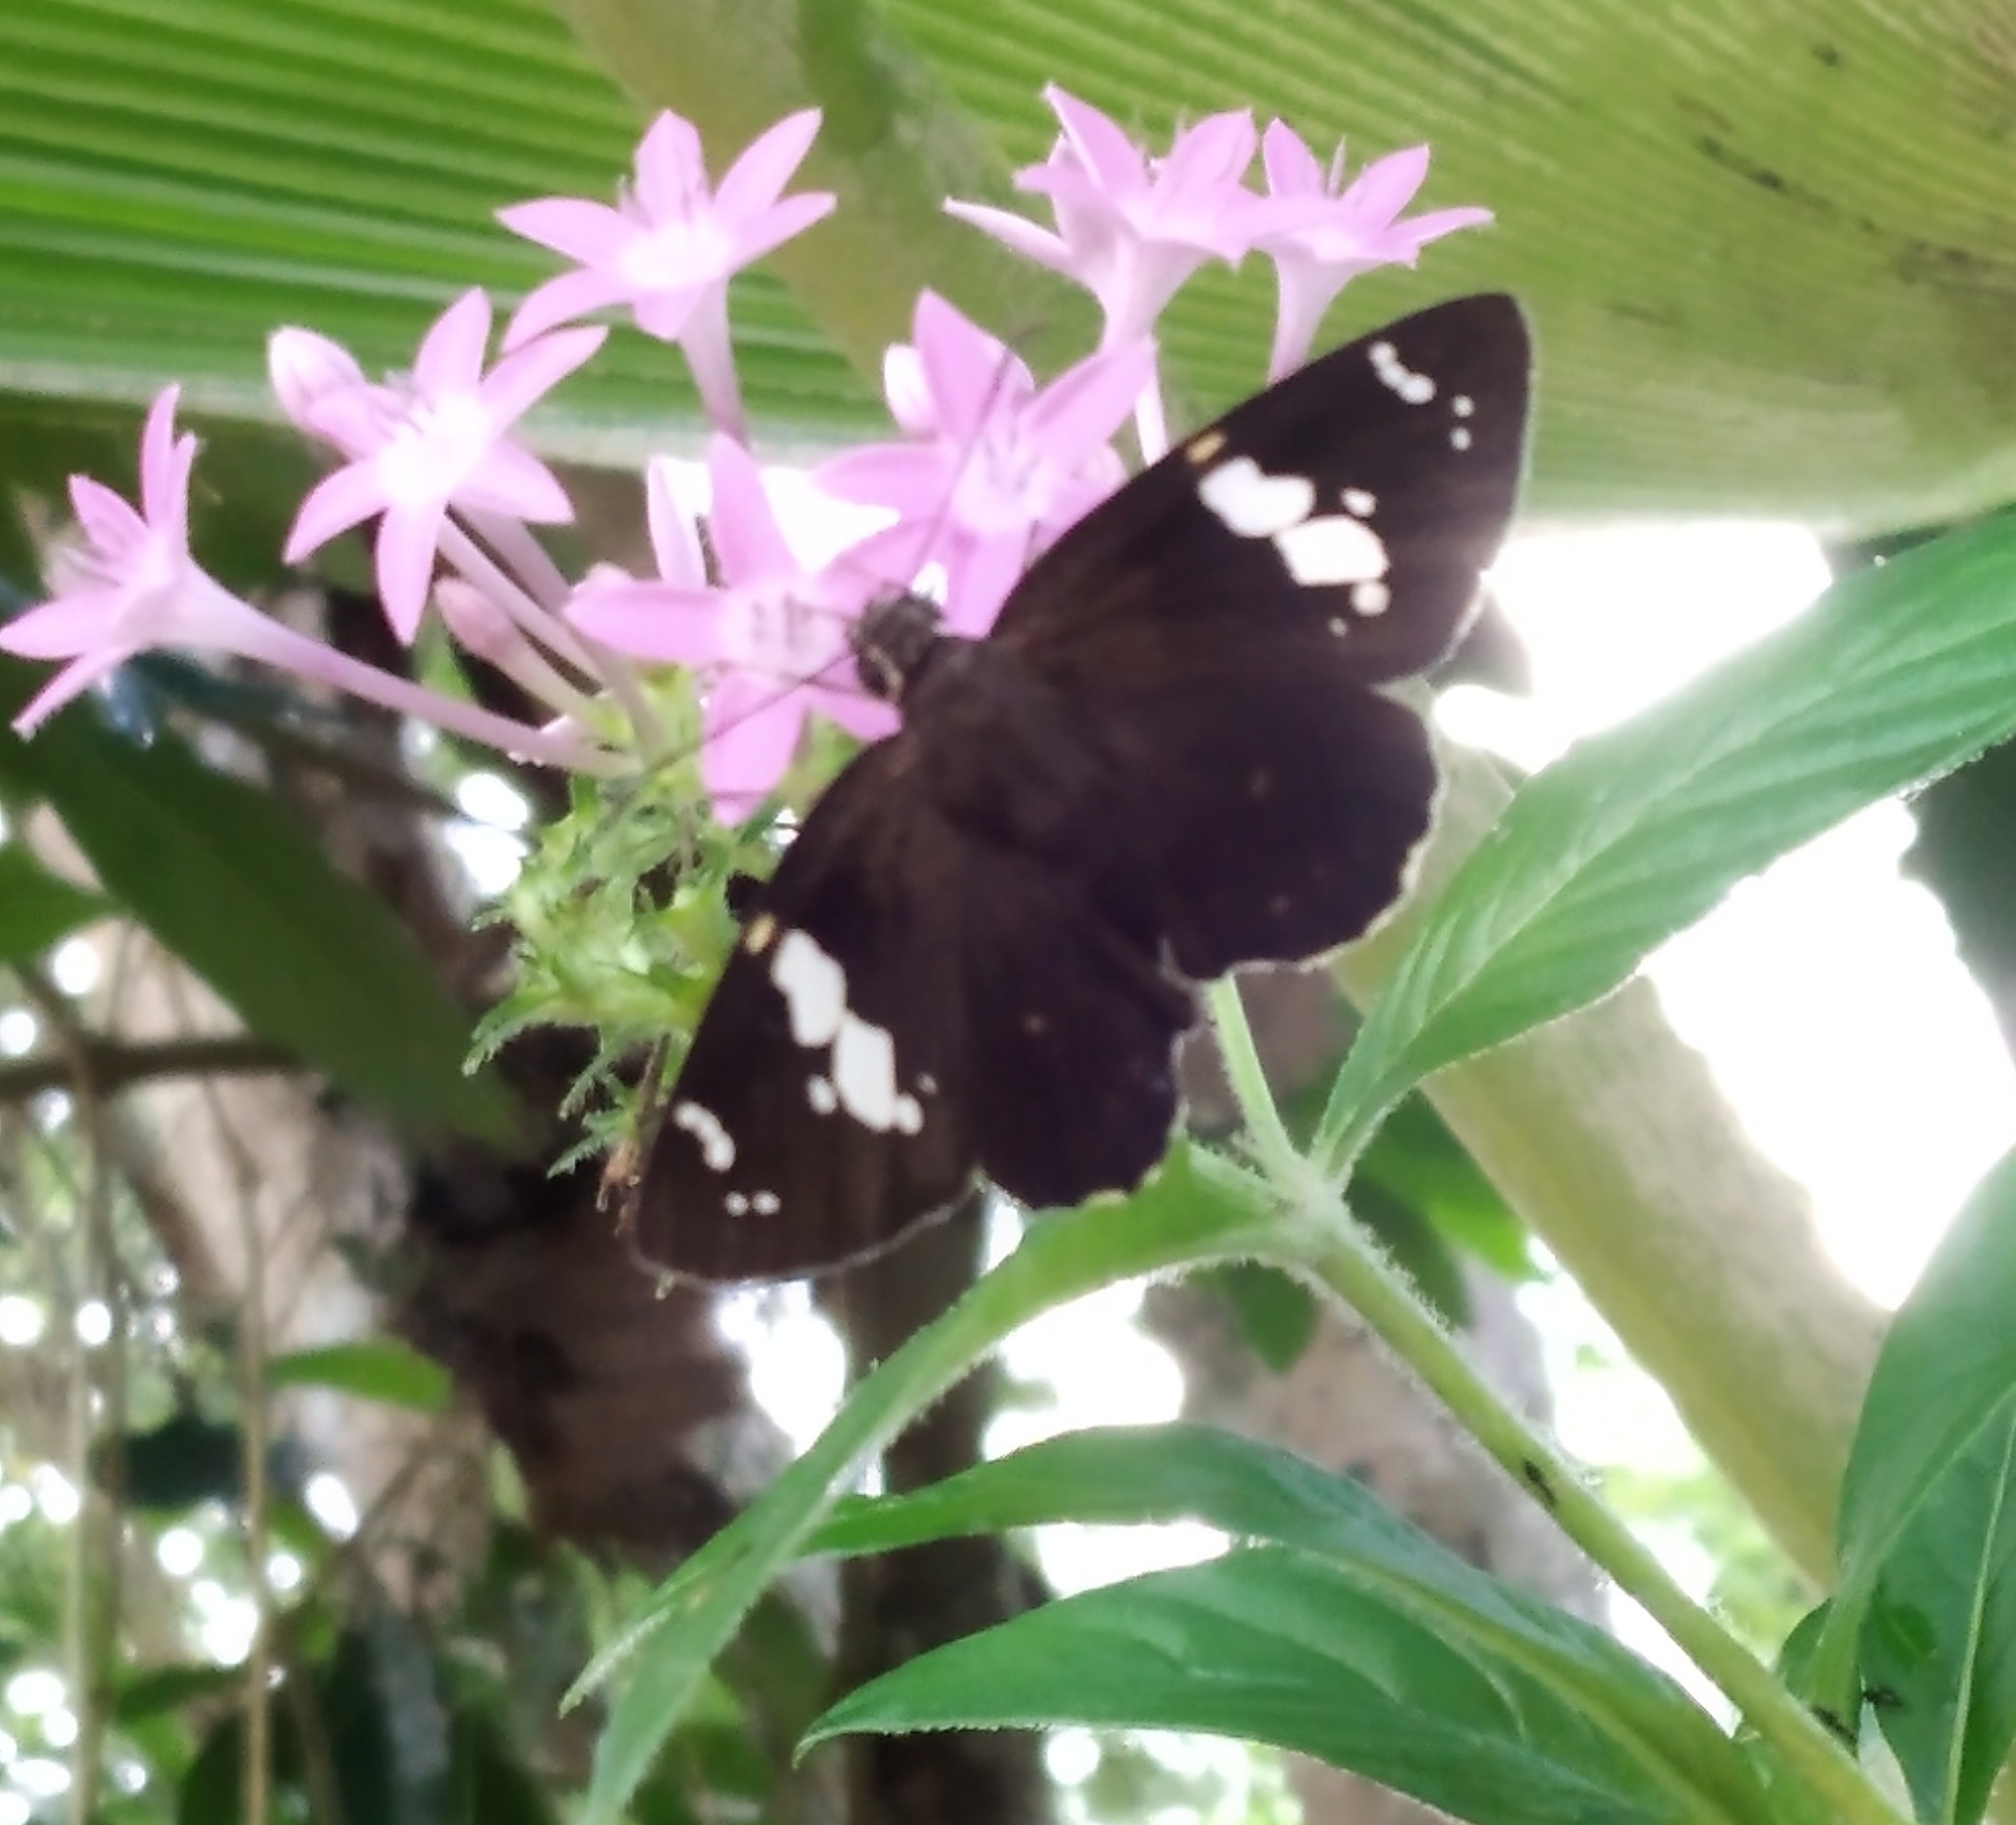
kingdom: Animalia
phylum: Arthropoda
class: Insecta
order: Lepidoptera
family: Hesperiidae
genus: Celaenorrhinus
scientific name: Celaenorrhinus leucocera
